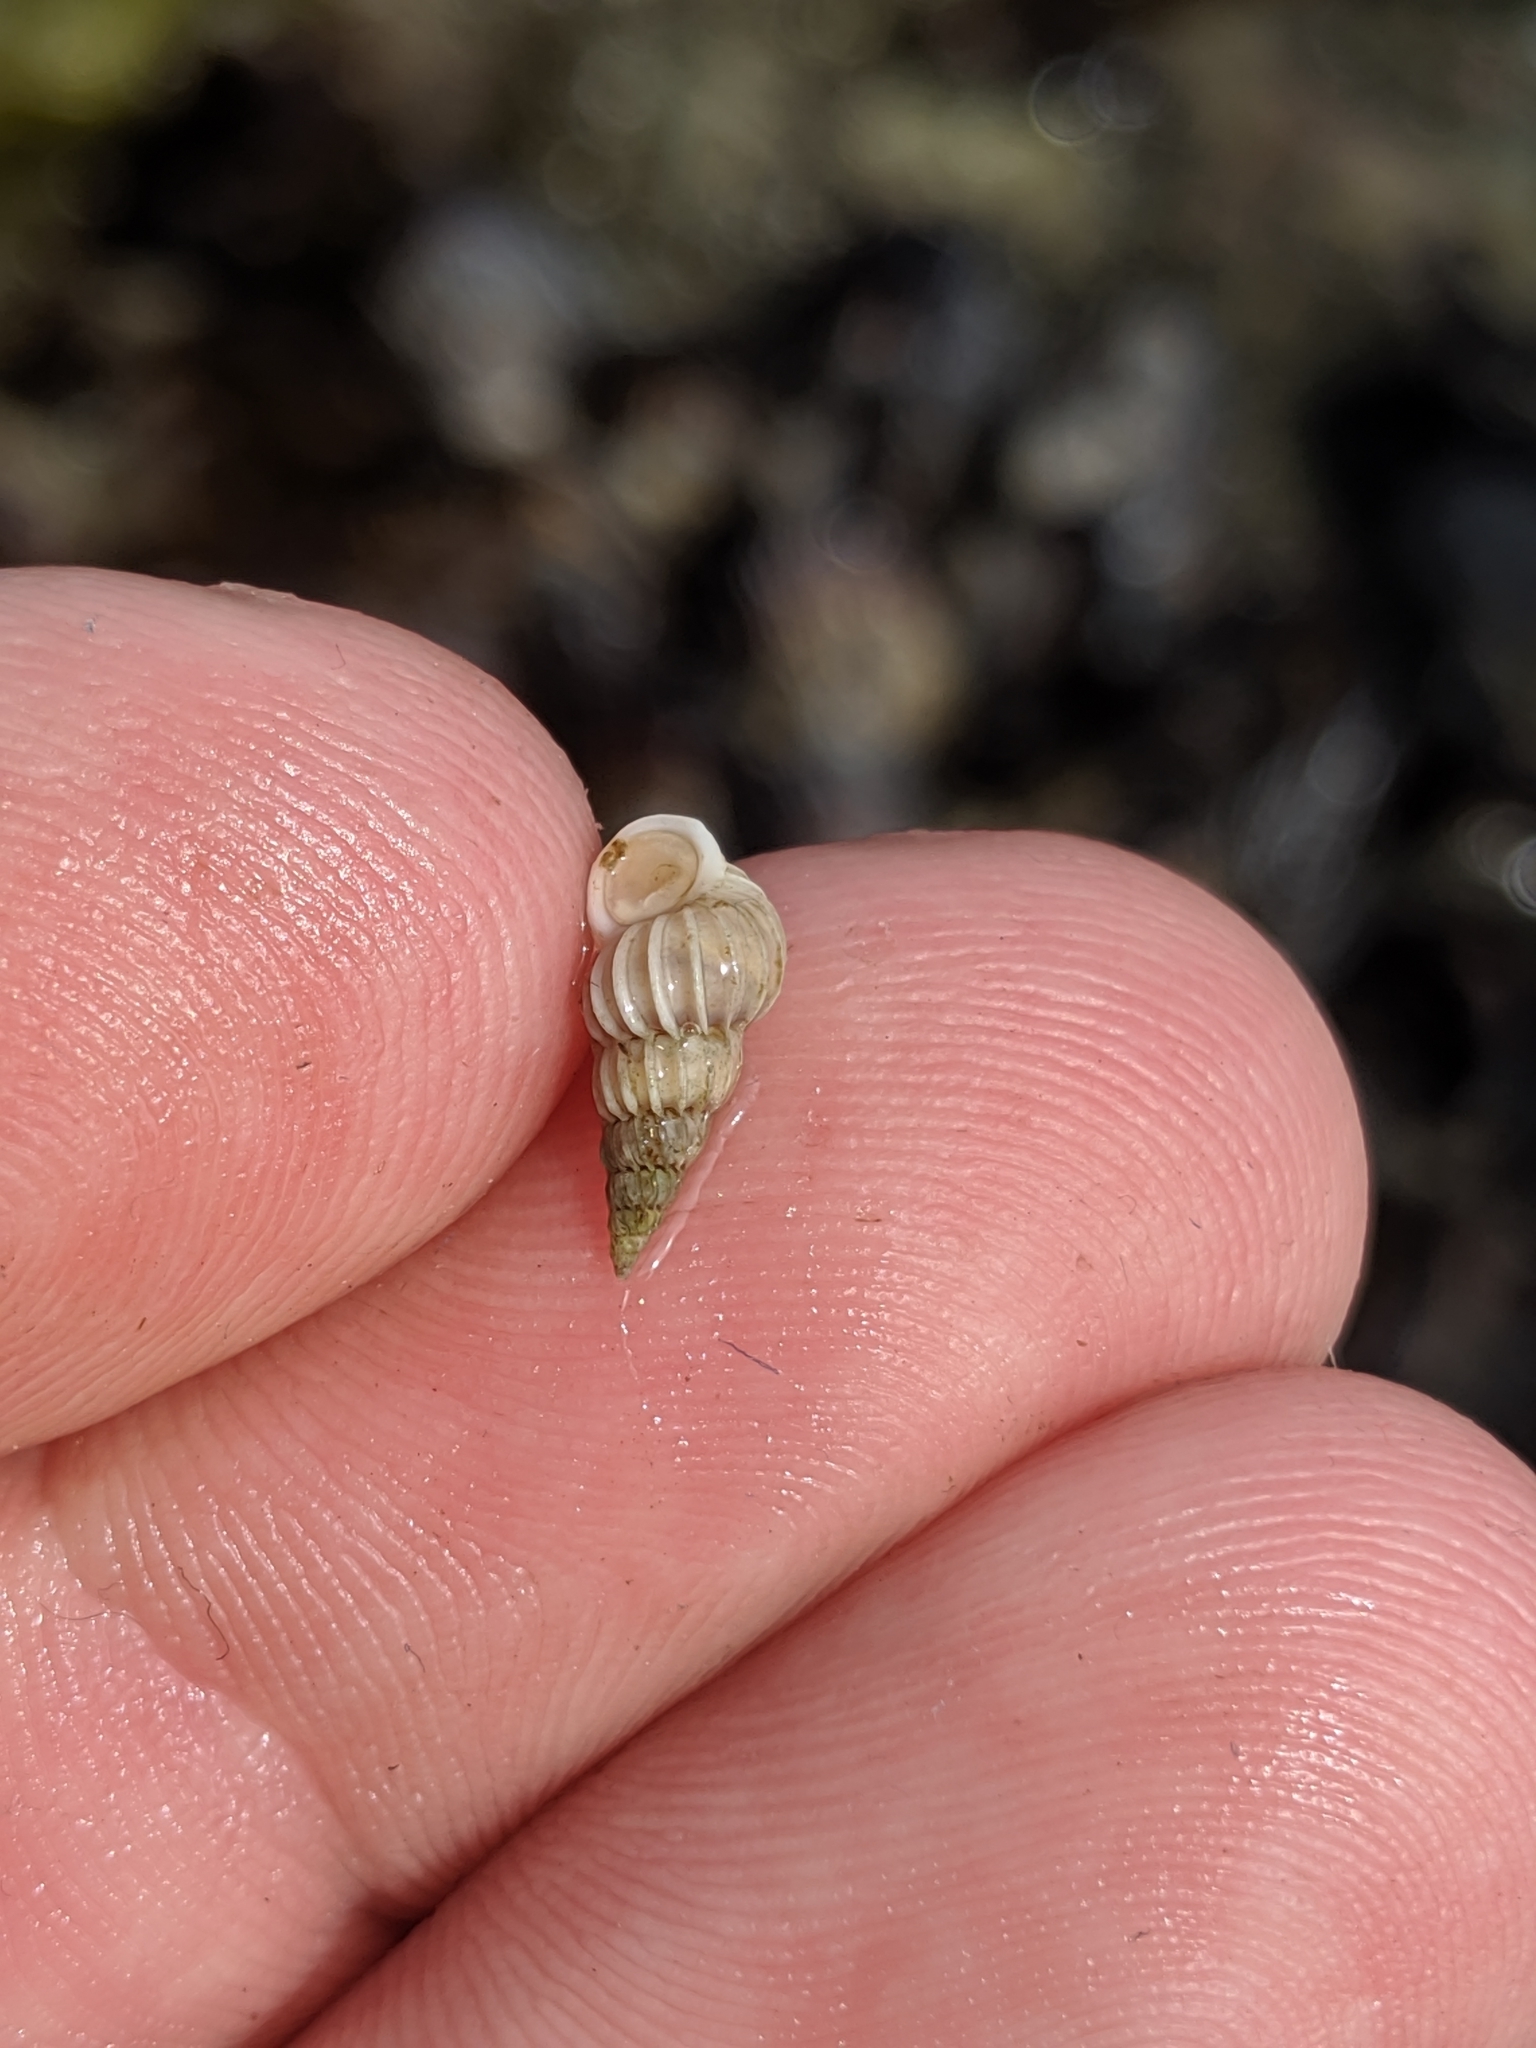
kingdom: Animalia
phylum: Mollusca
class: Gastropoda
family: Epitoniidae
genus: Epitonium
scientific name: Epitonium tinctum
